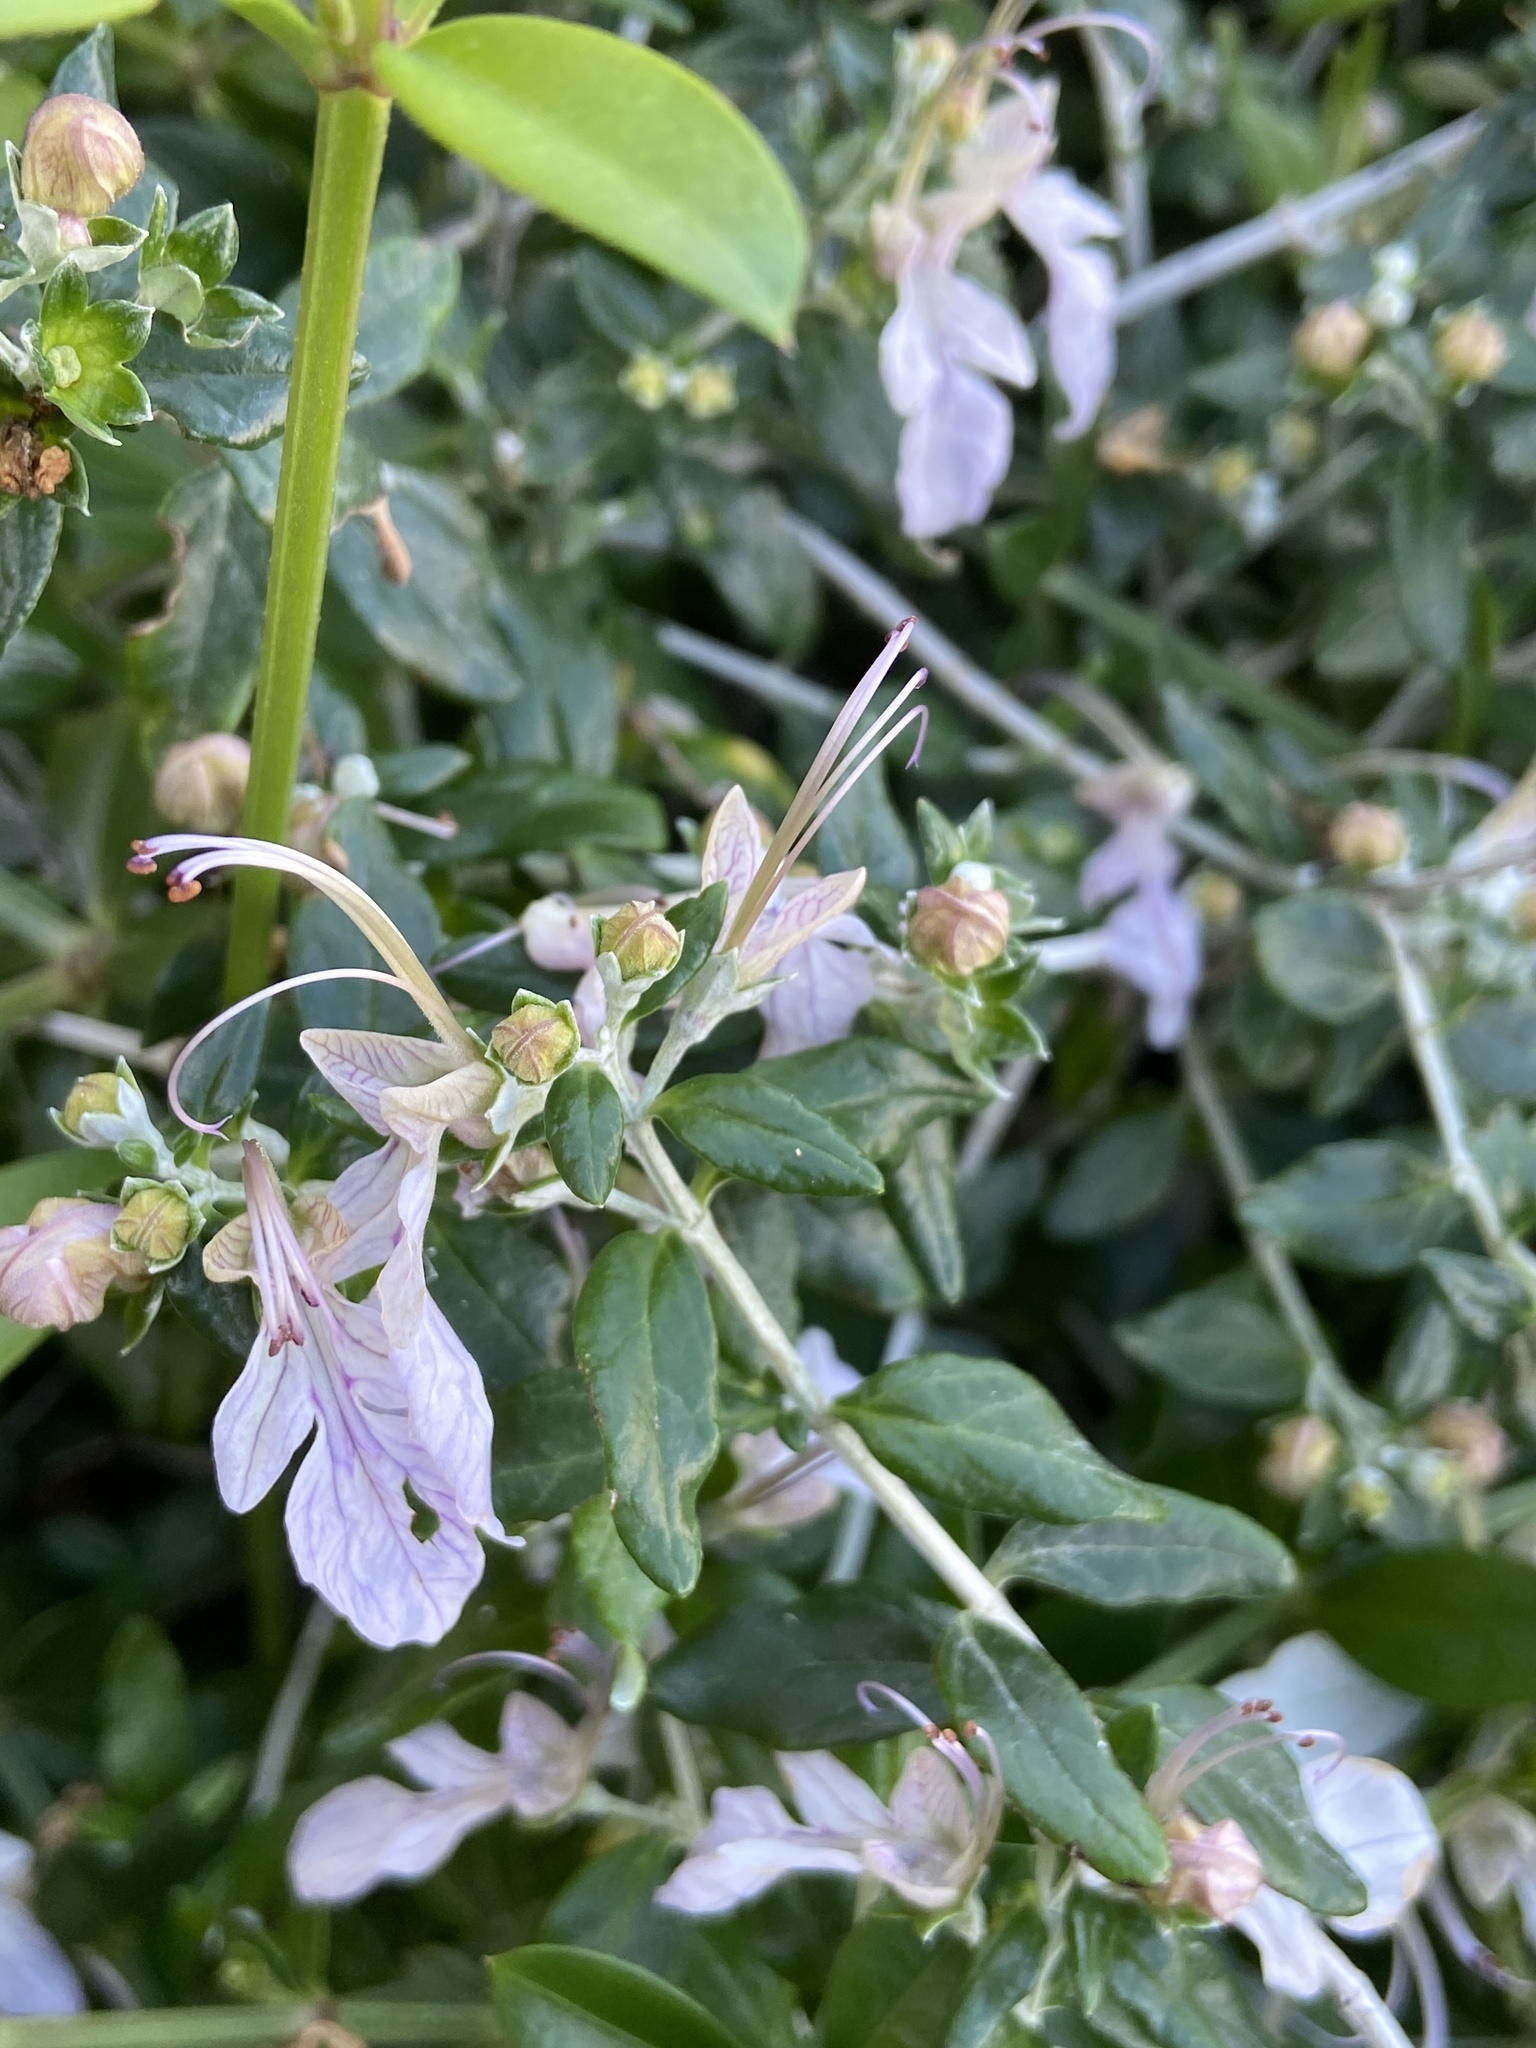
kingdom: Plantae
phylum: Tracheophyta
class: Magnoliopsida
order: Lamiales
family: Lamiaceae
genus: Teucrium
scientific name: Teucrium fruticans
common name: Shrubby germander
